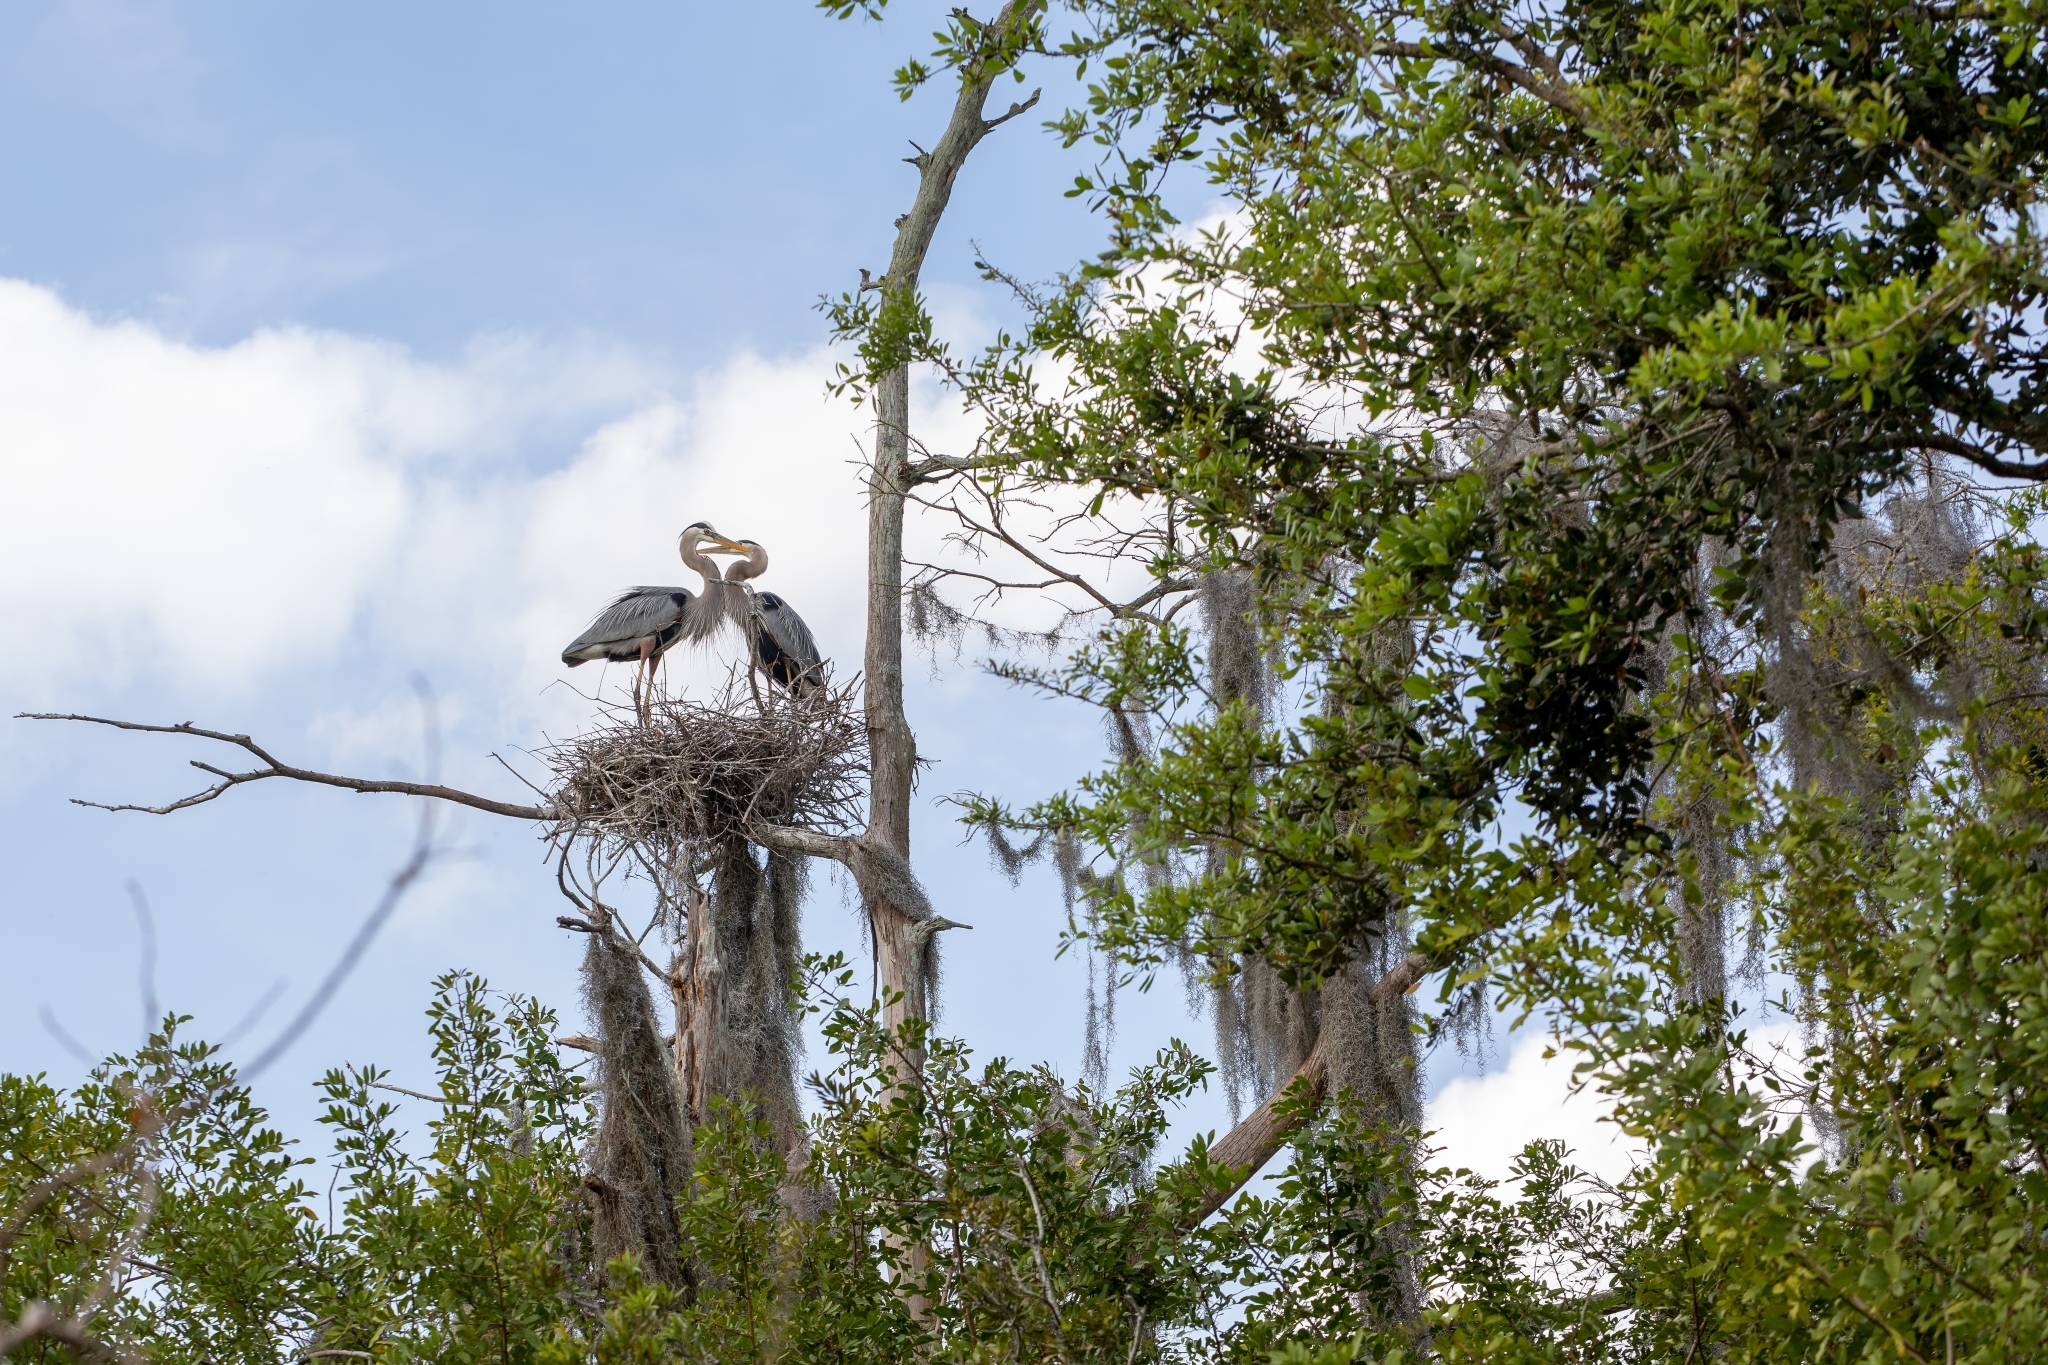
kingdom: Animalia
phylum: Chordata
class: Aves
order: Pelecaniformes
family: Ardeidae
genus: Ardea
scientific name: Ardea herodias
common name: Great blue heron
